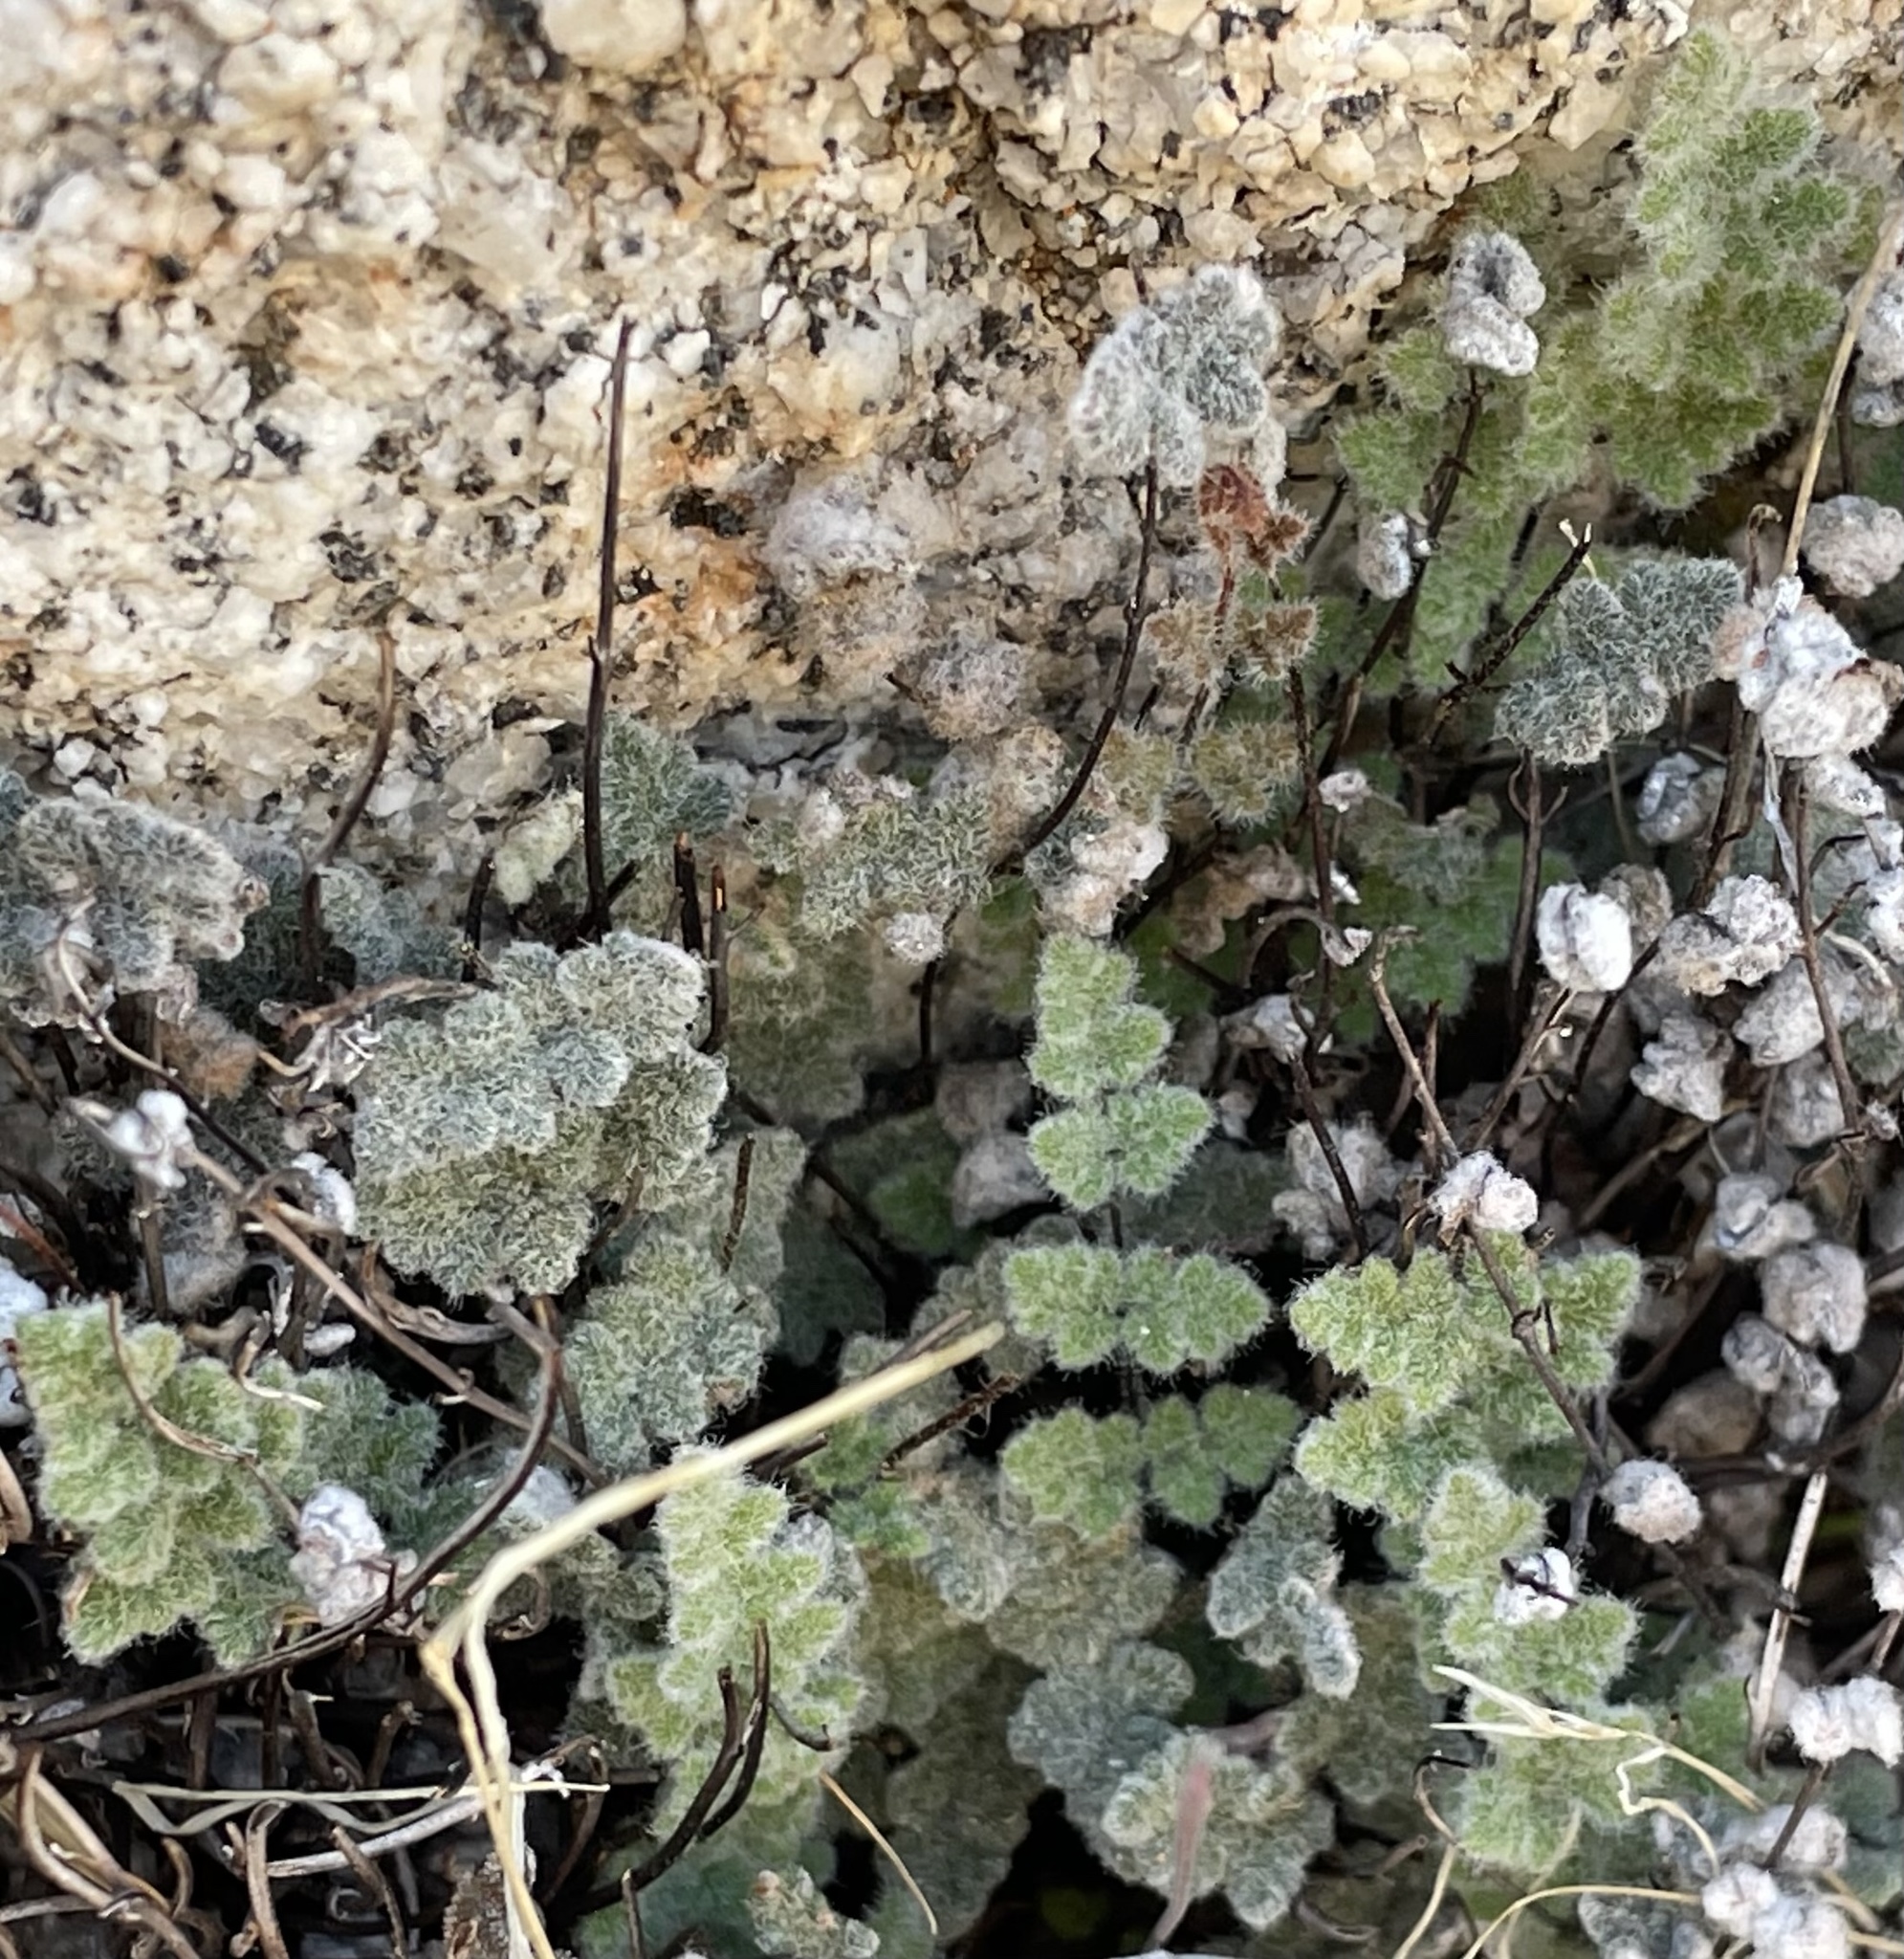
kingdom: Plantae
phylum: Tracheophyta
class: Polypodiopsida
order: Polypodiales
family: Pteridaceae
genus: Myriopteris
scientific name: Myriopteris parryi
